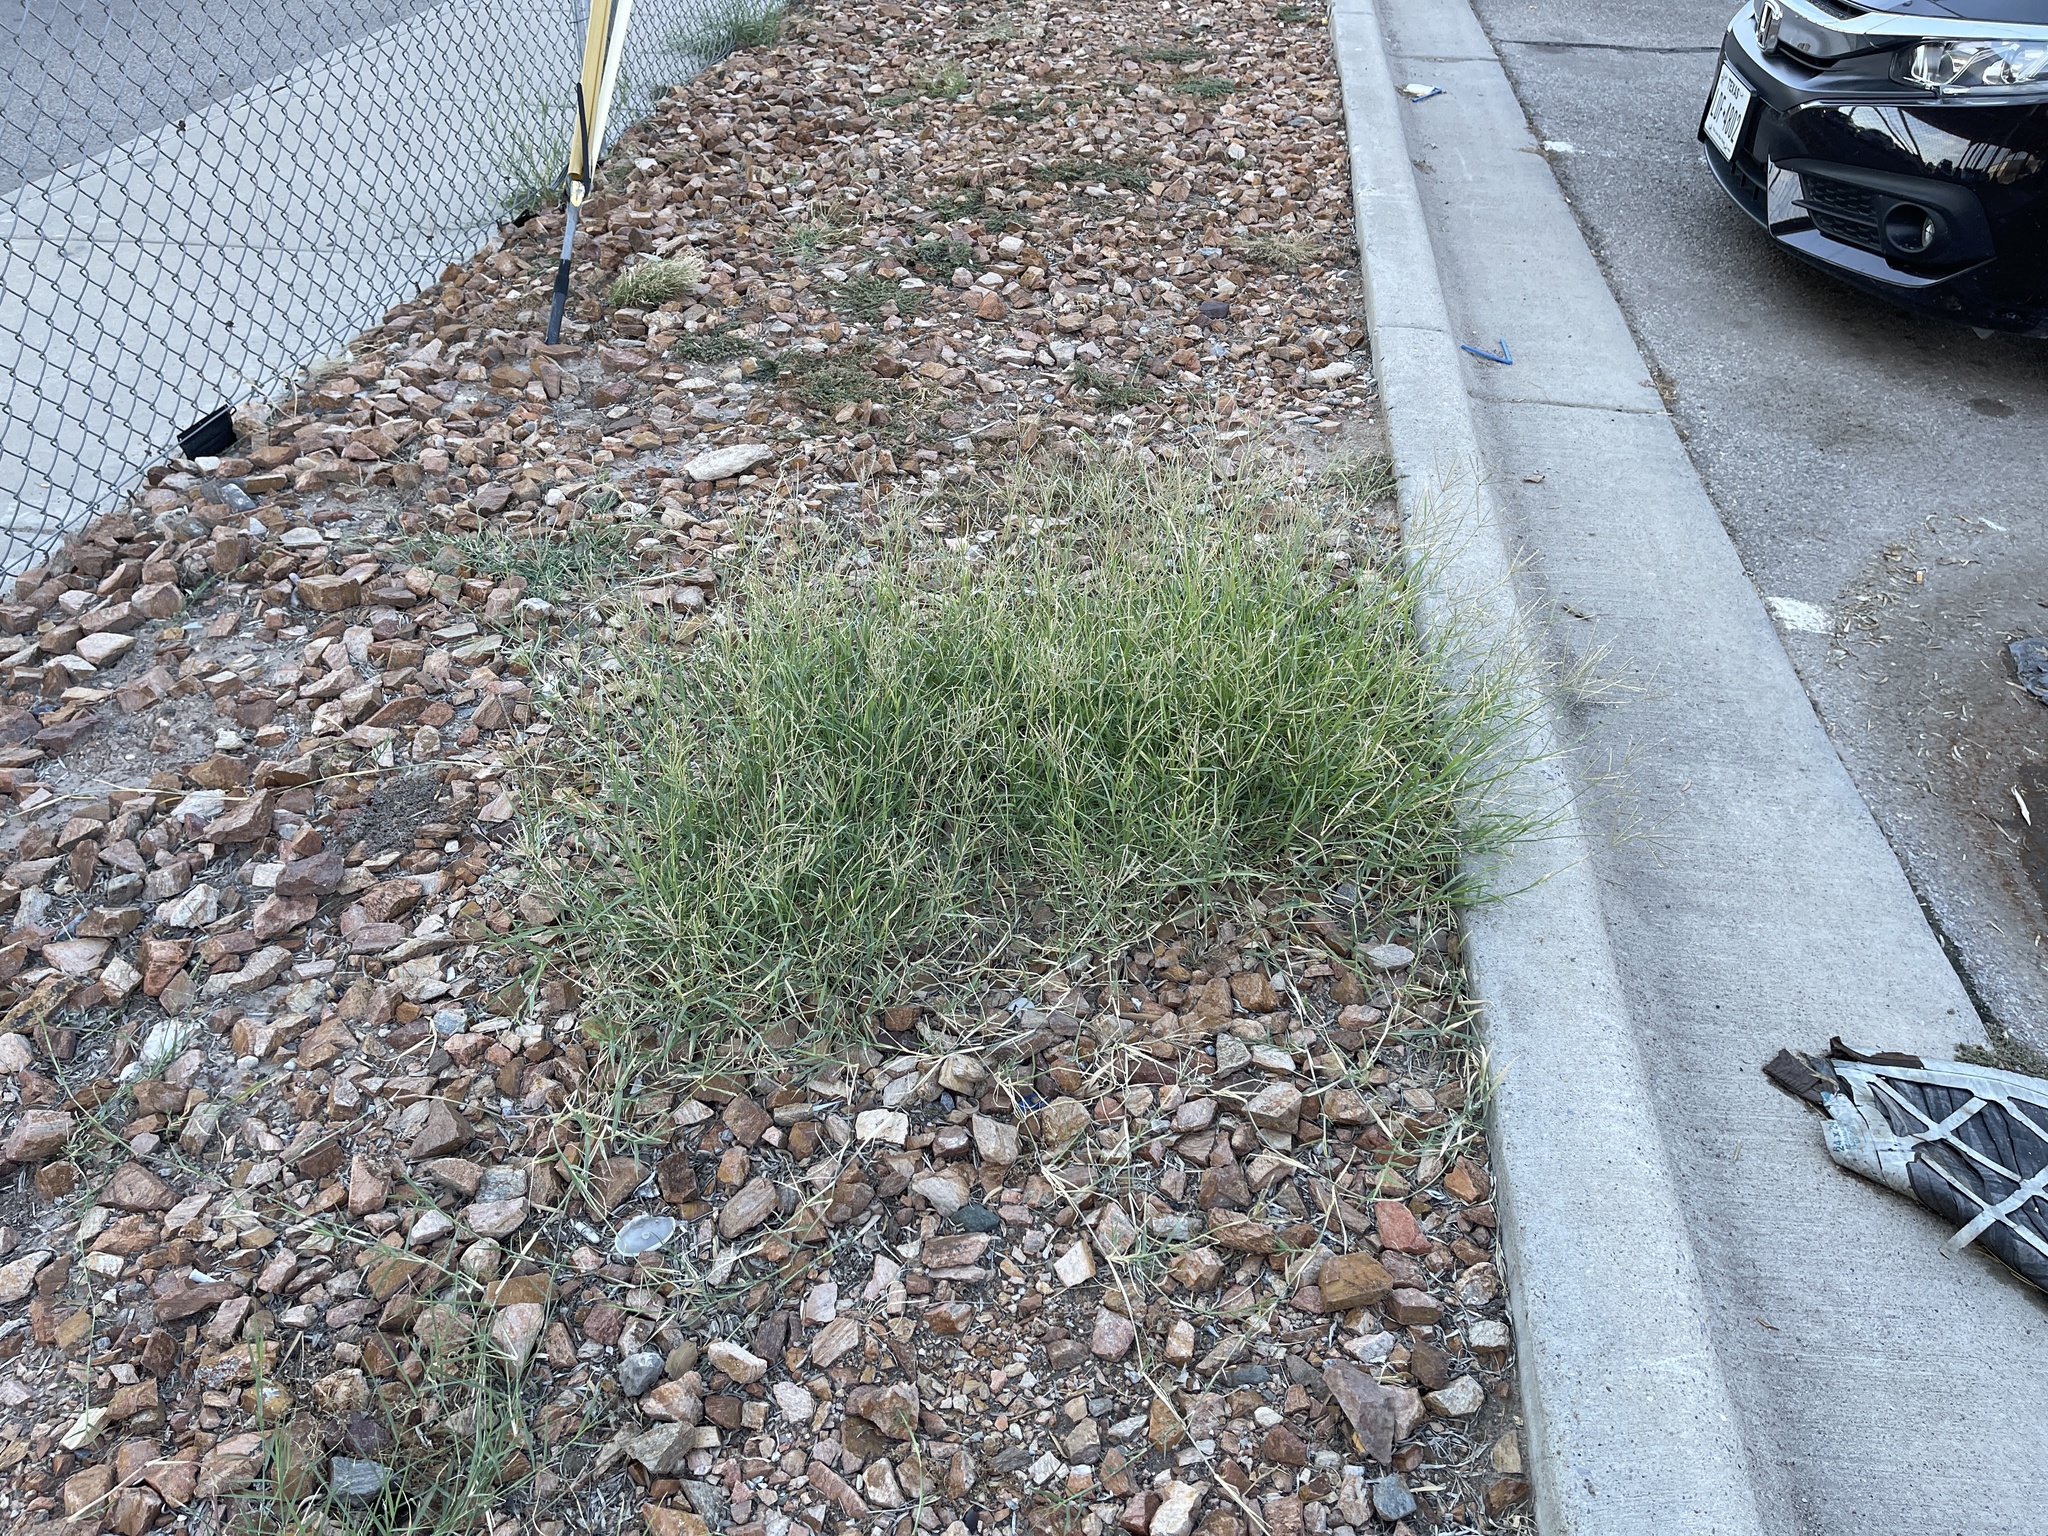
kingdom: Plantae
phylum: Tracheophyta
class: Liliopsida
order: Poales
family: Poaceae
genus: Cynodon
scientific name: Cynodon dactylon
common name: Bermuda grass
